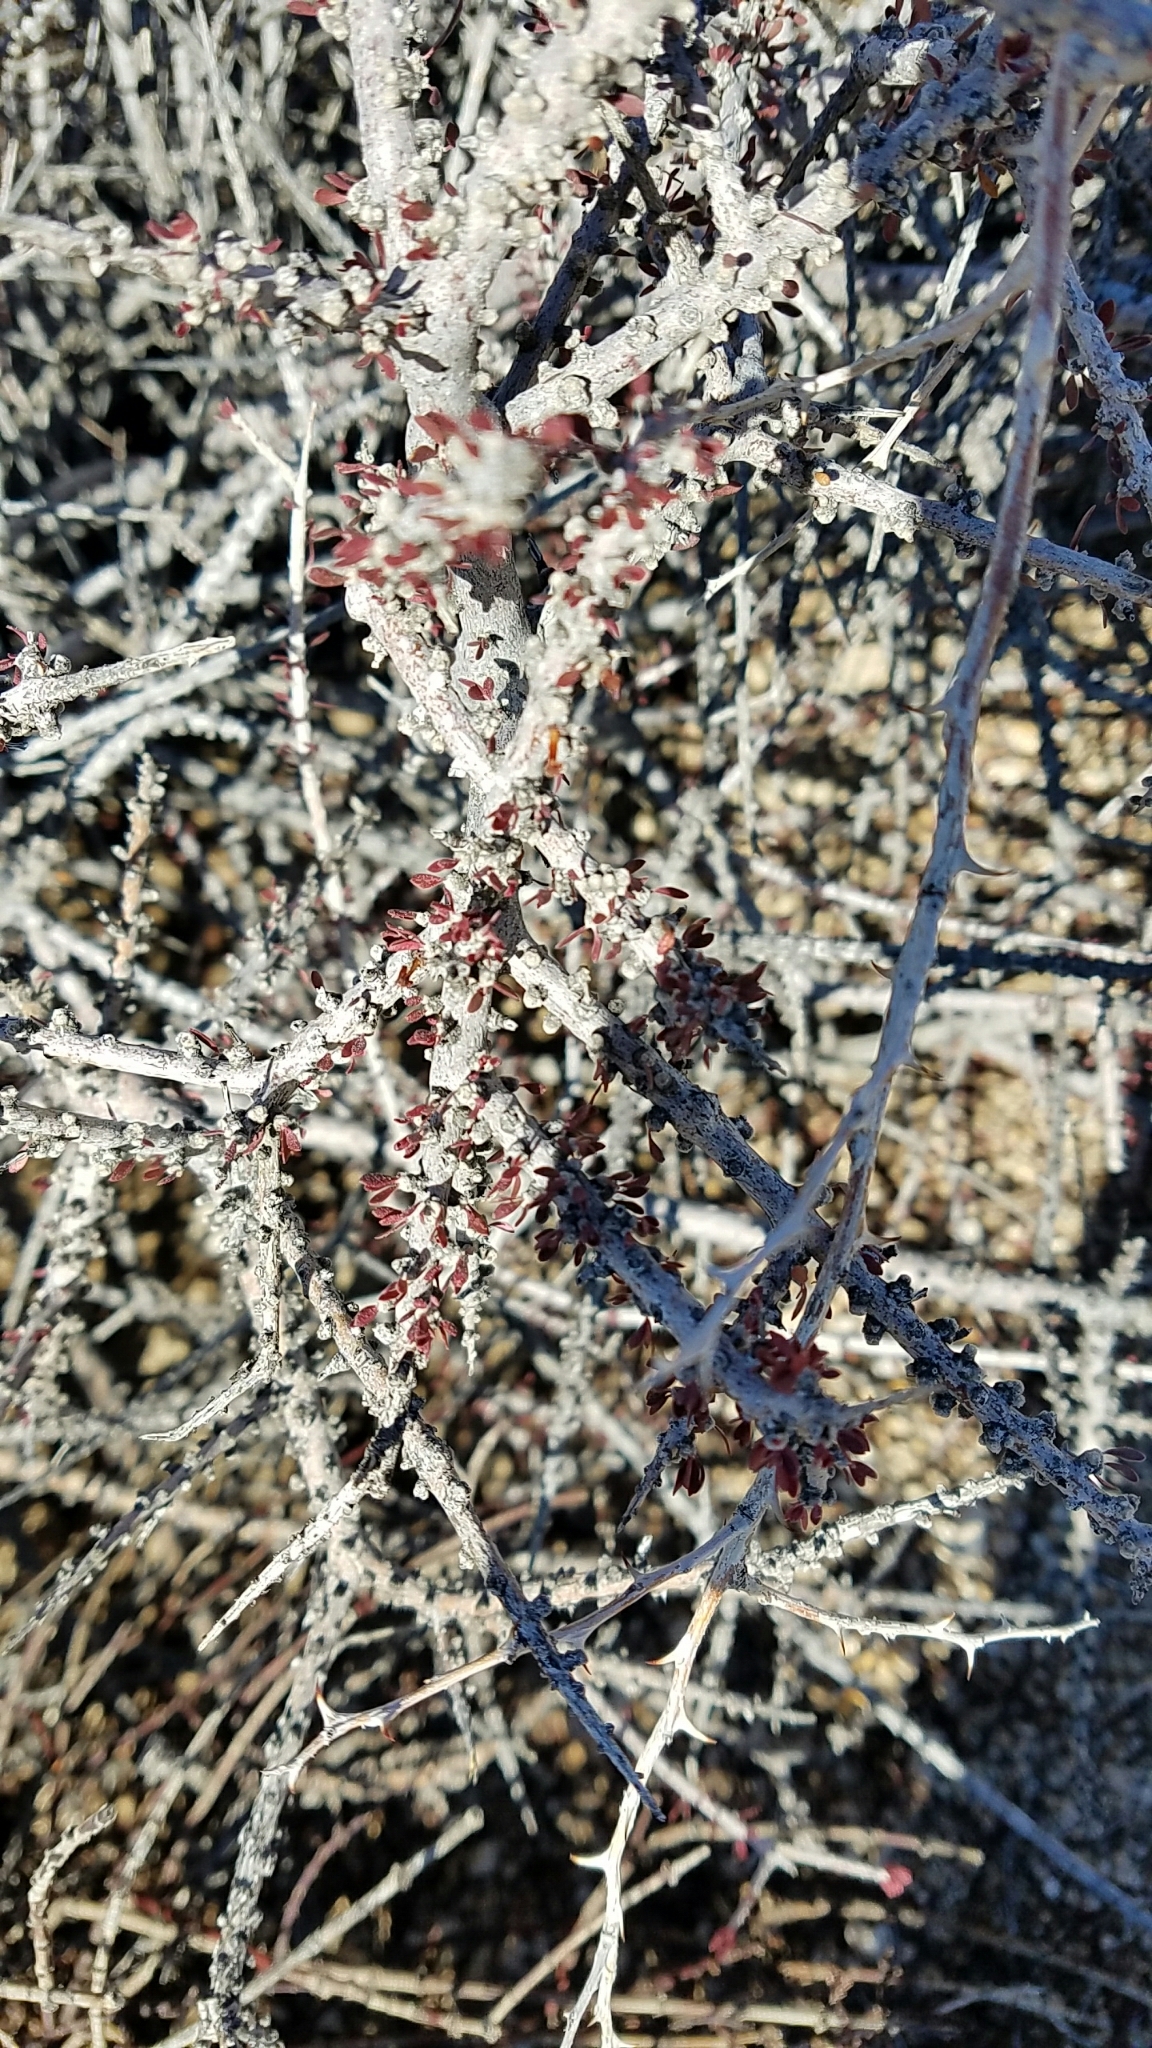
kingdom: Plantae
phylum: Tracheophyta
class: Magnoliopsida
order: Malpighiales
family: Picrodendraceae
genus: Tetracoccus
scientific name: Tetracoccus hallii
